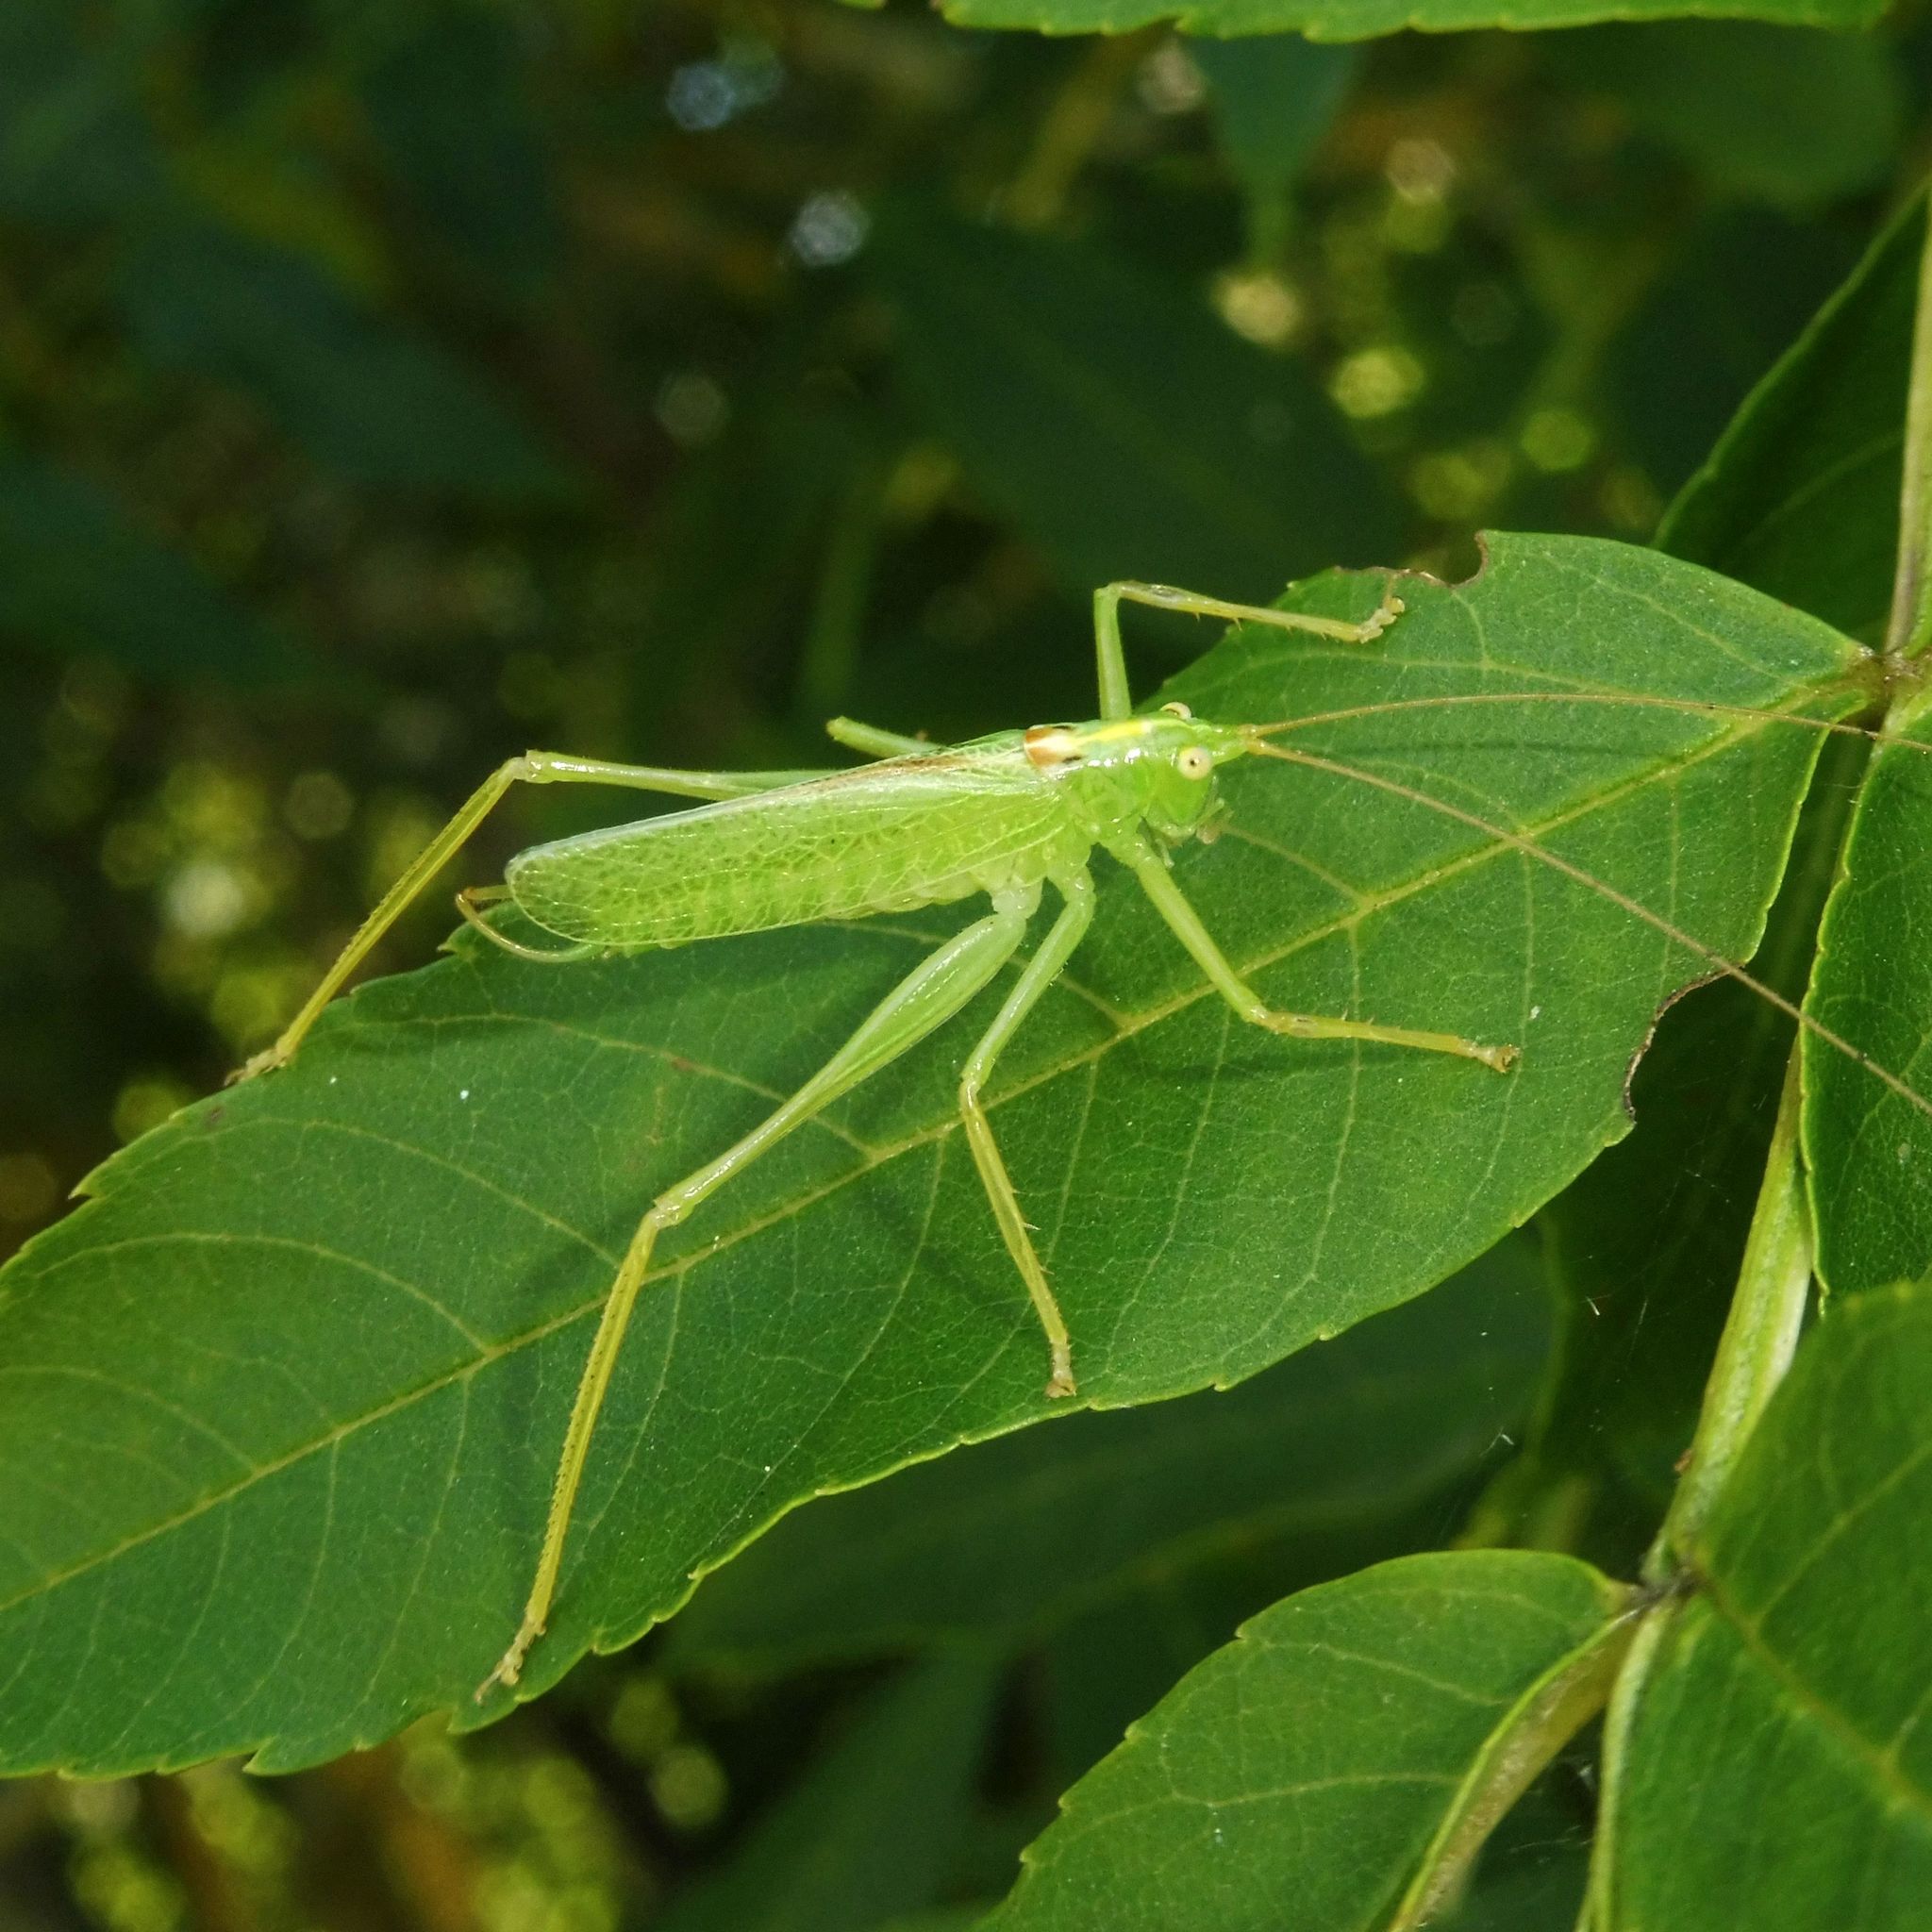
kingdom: Animalia
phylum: Arthropoda
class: Insecta
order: Orthoptera
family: Tettigoniidae
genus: Meconema
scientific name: Meconema thalassinum
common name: Oak bush-cricket
